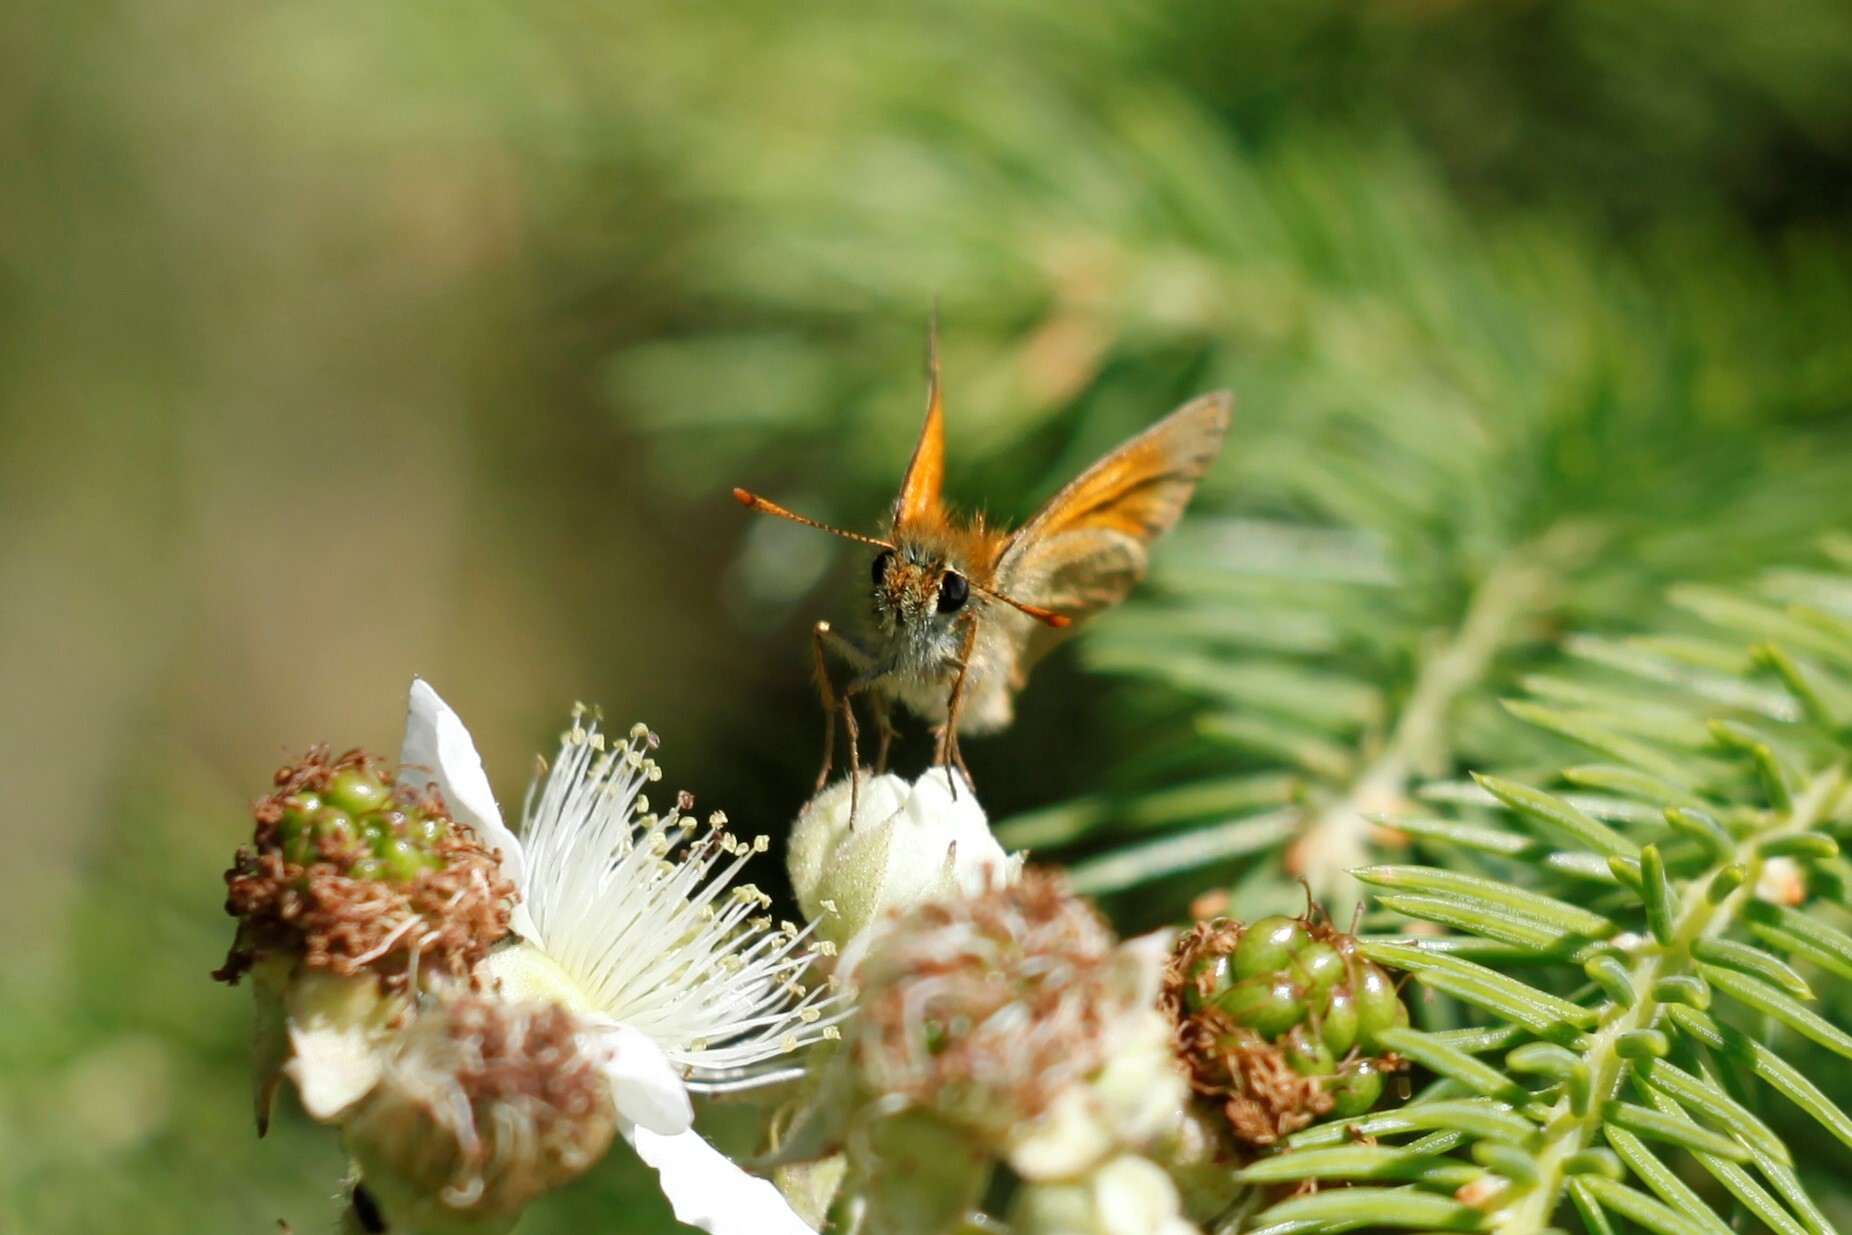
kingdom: Animalia
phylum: Arthropoda
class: Insecta
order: Lepidoptera
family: Hesperiidae
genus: Thymelicus
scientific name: Thymelicus sylvestris
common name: Small skipper
